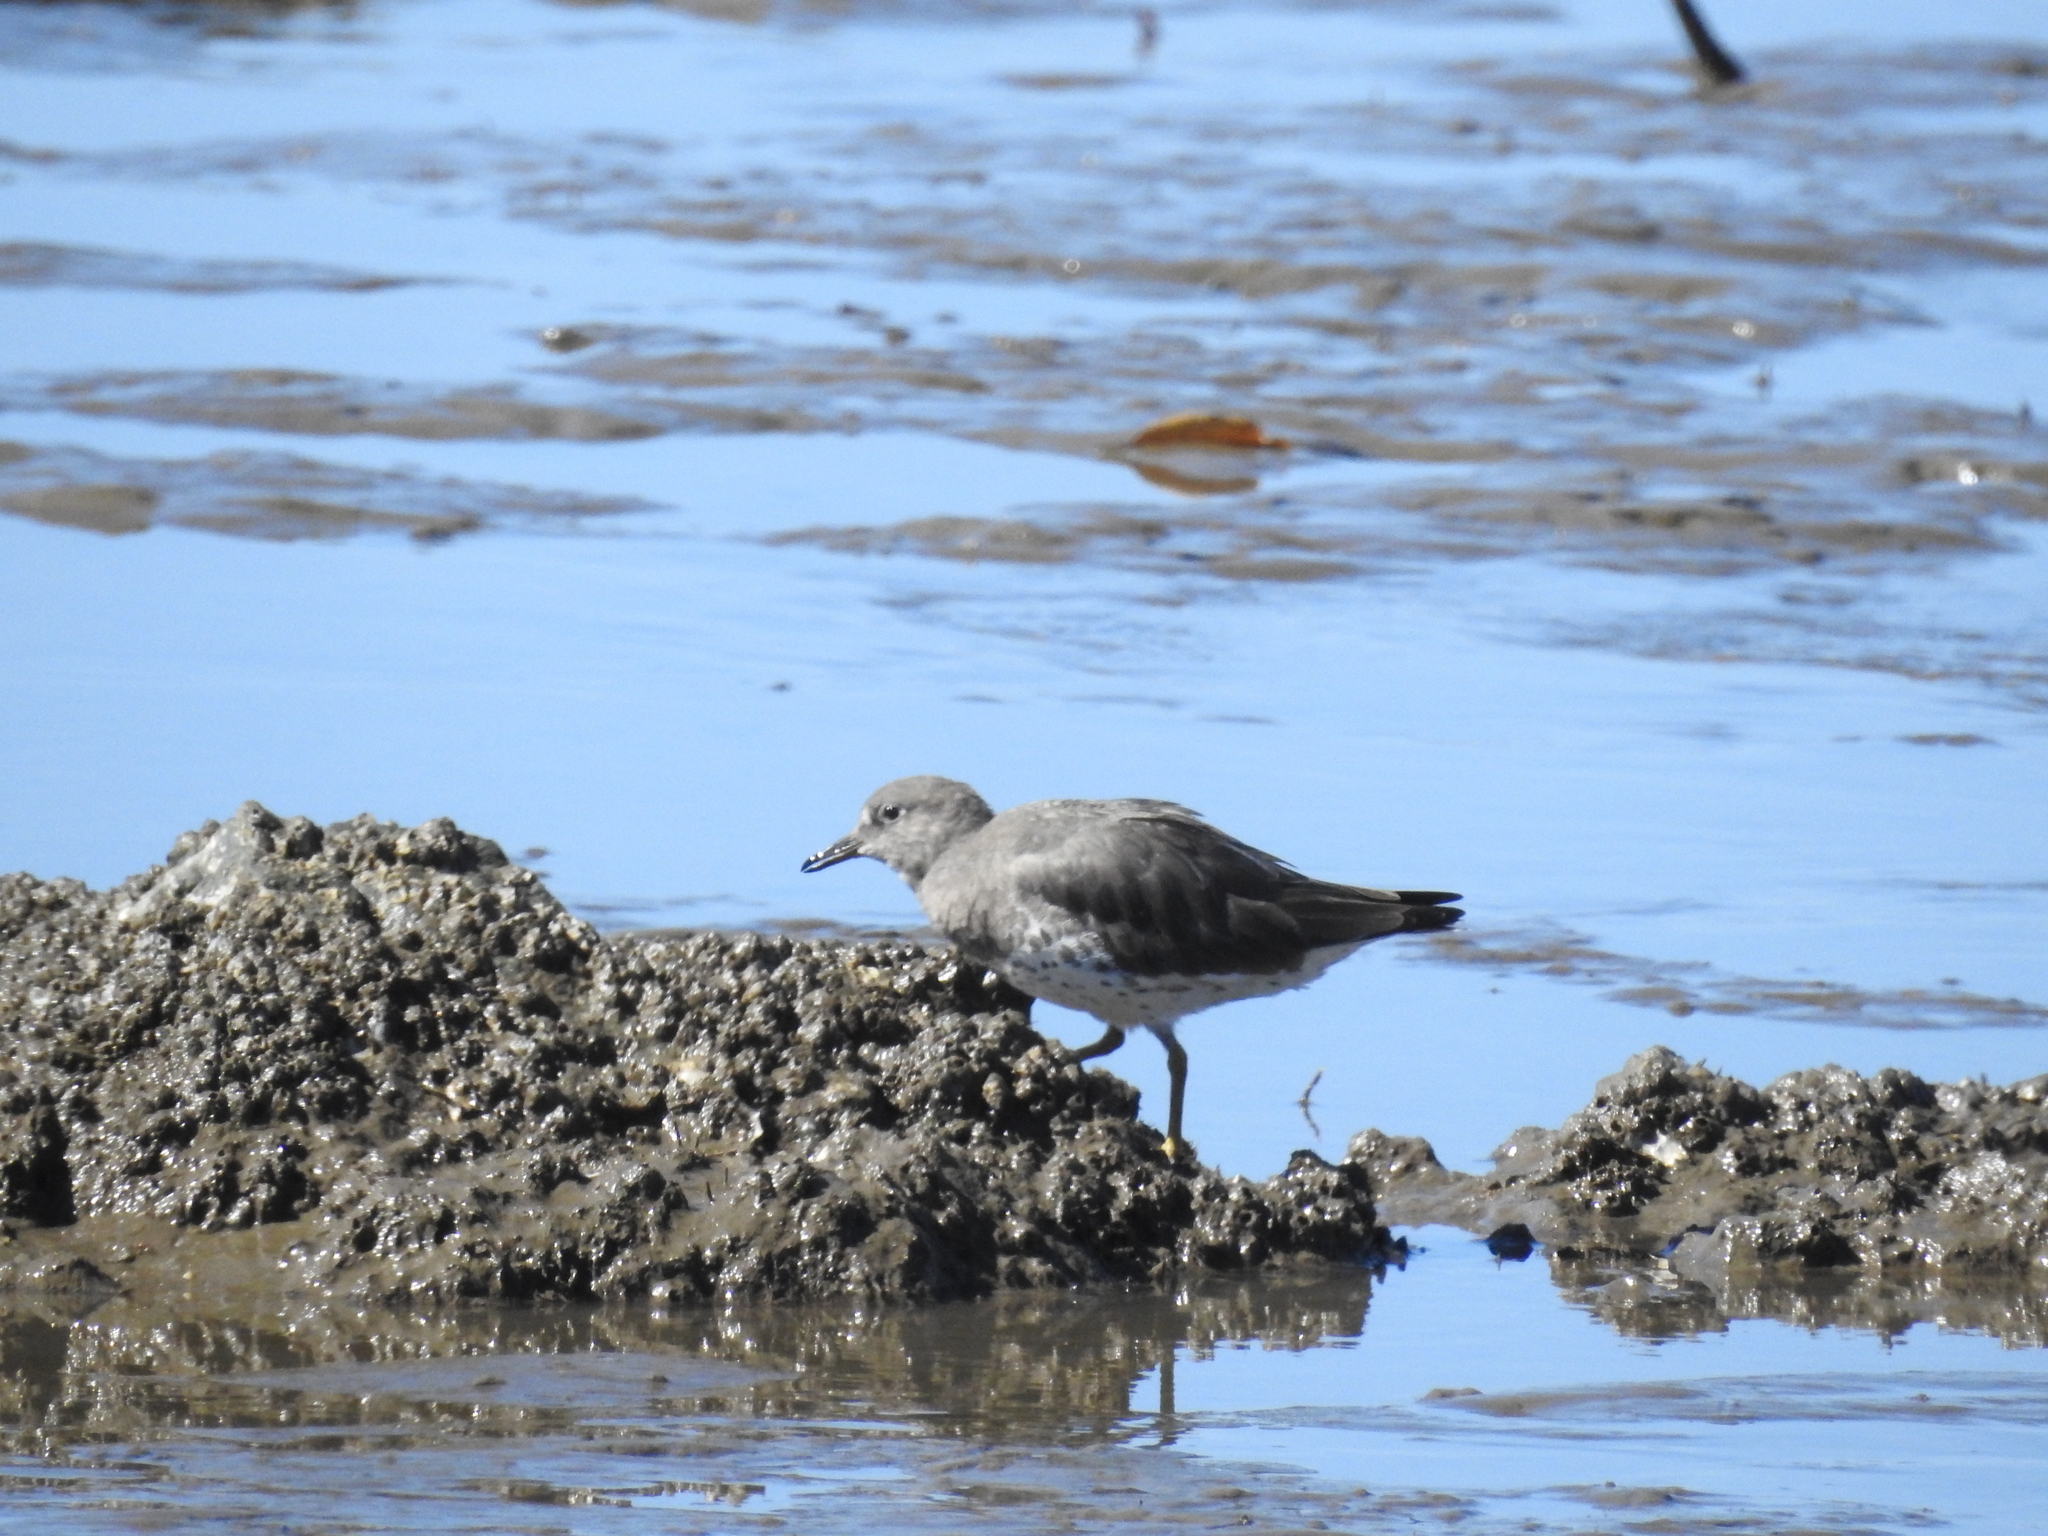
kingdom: Animalia
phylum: Chordata
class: Aves
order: Charadriiformes
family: Scolopacidae
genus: Calidris
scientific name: Calidris virgata
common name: Surfbird
